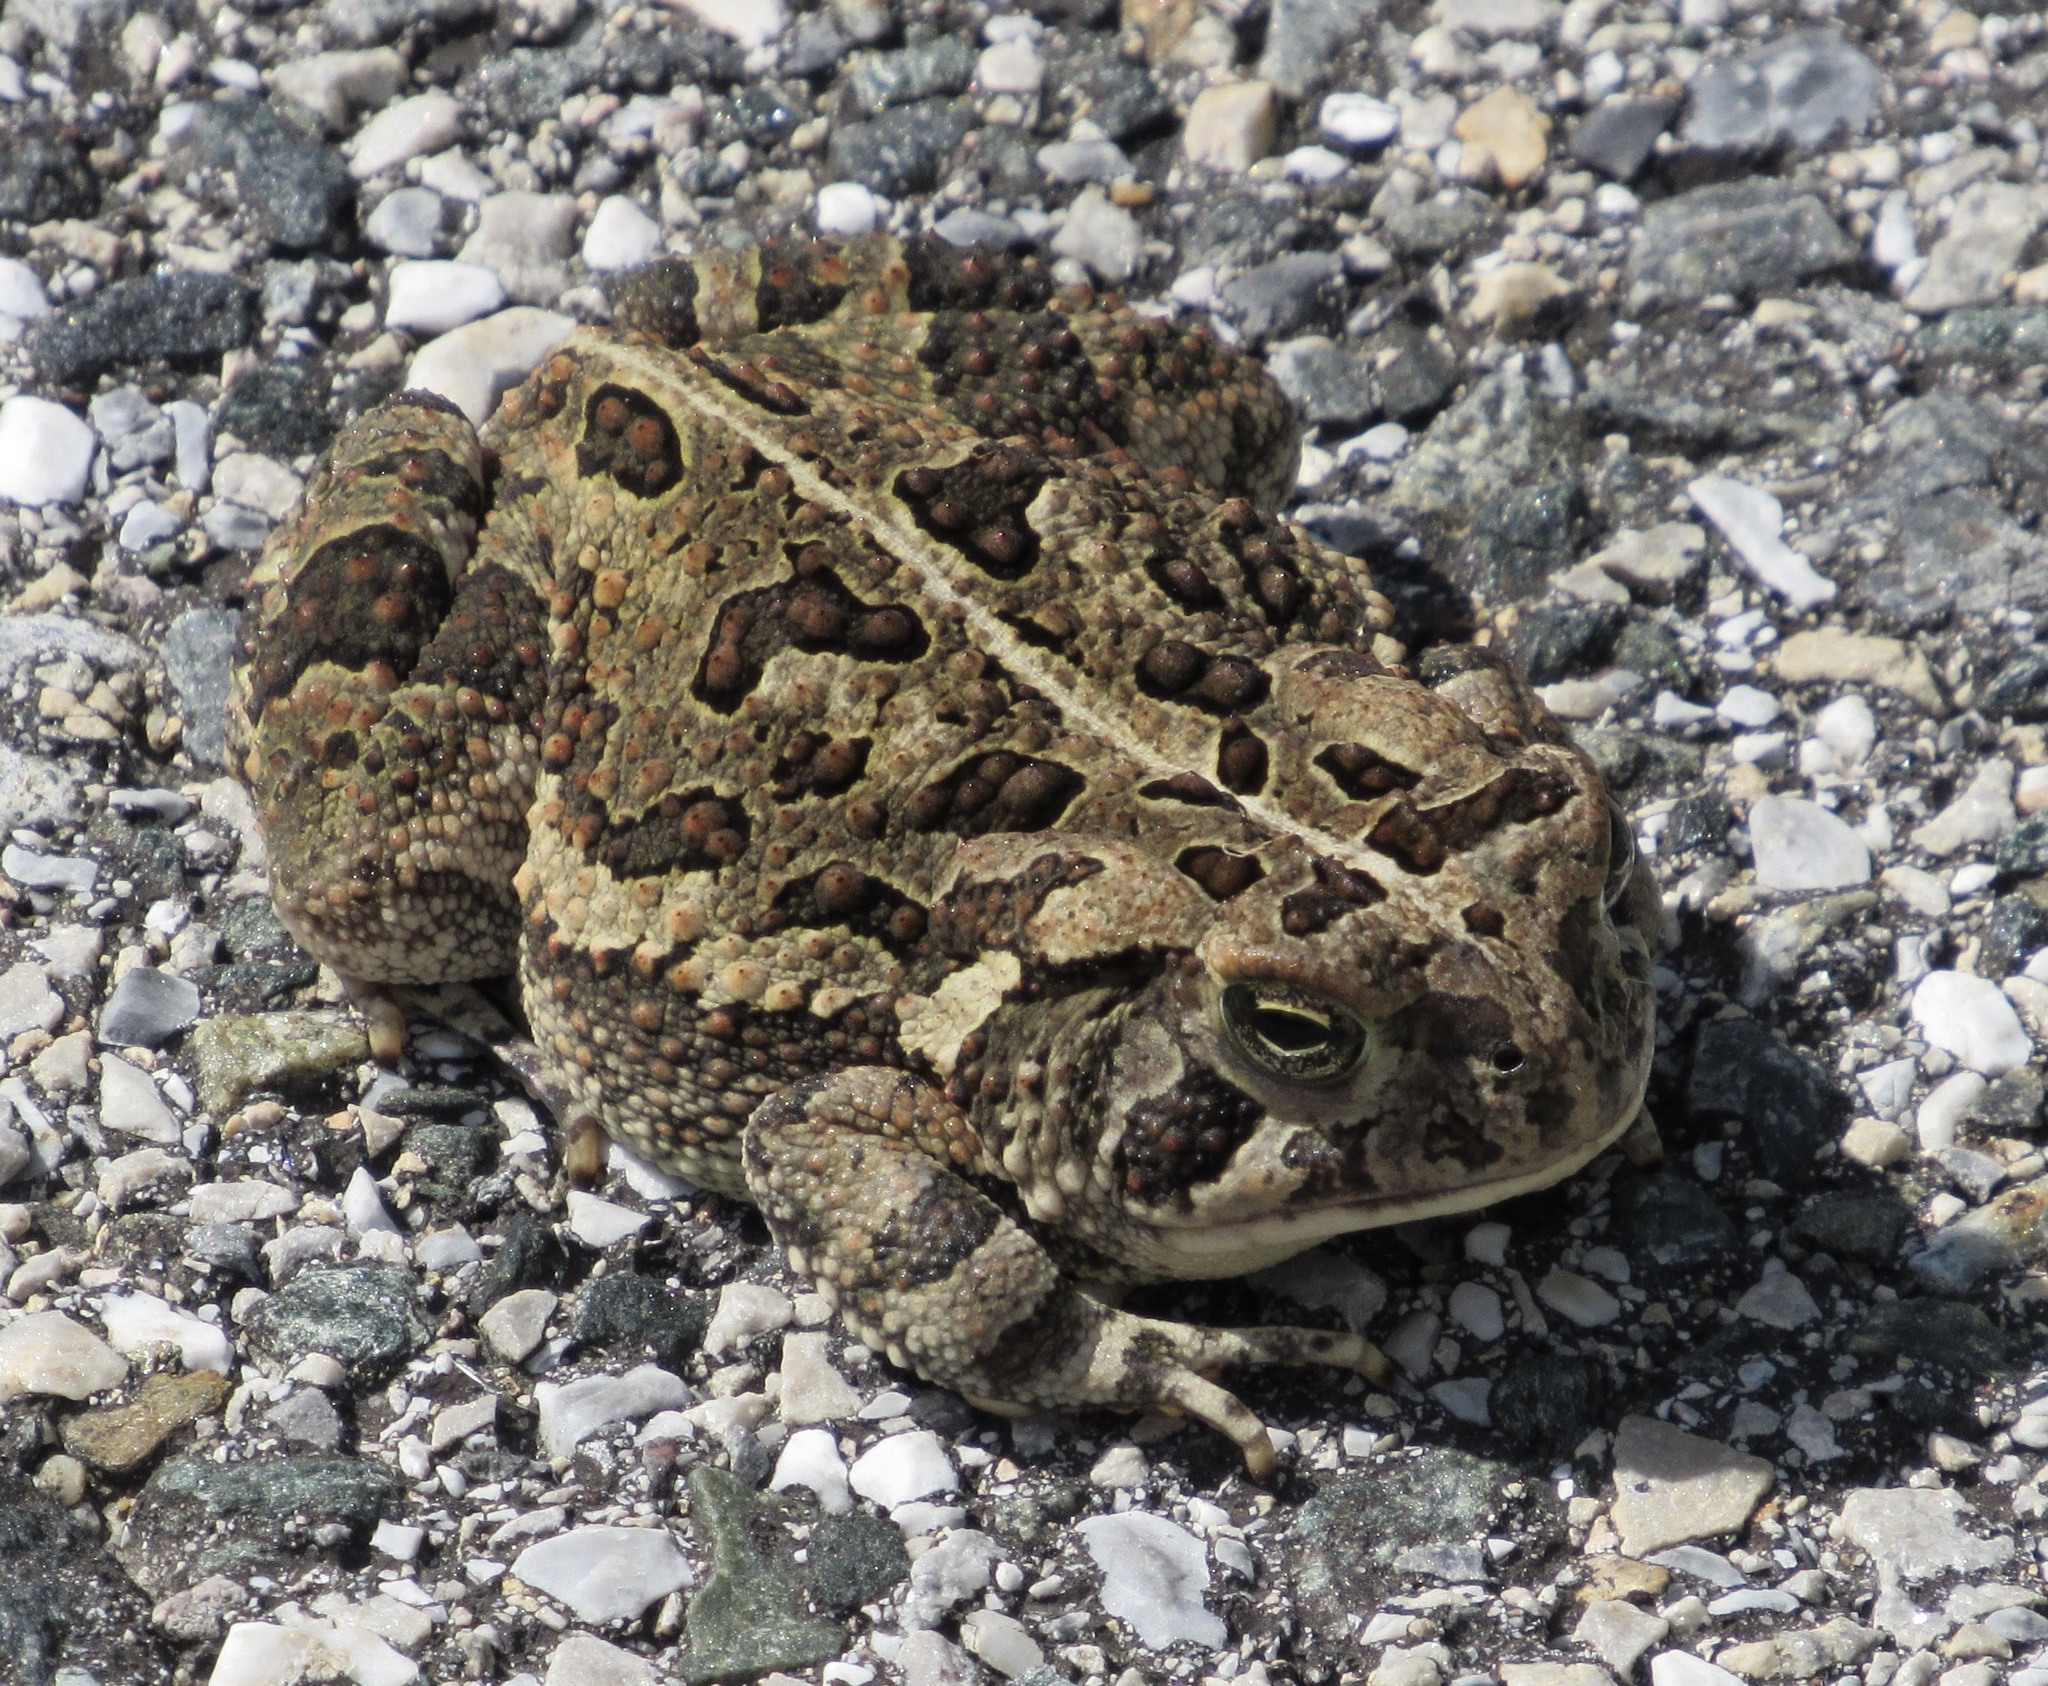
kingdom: Animalia
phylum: Chordata
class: Amphibia
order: Anura
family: Bufonidae
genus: Anaxyrus
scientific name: Anaxyrus fowleri
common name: Fowler's toad
